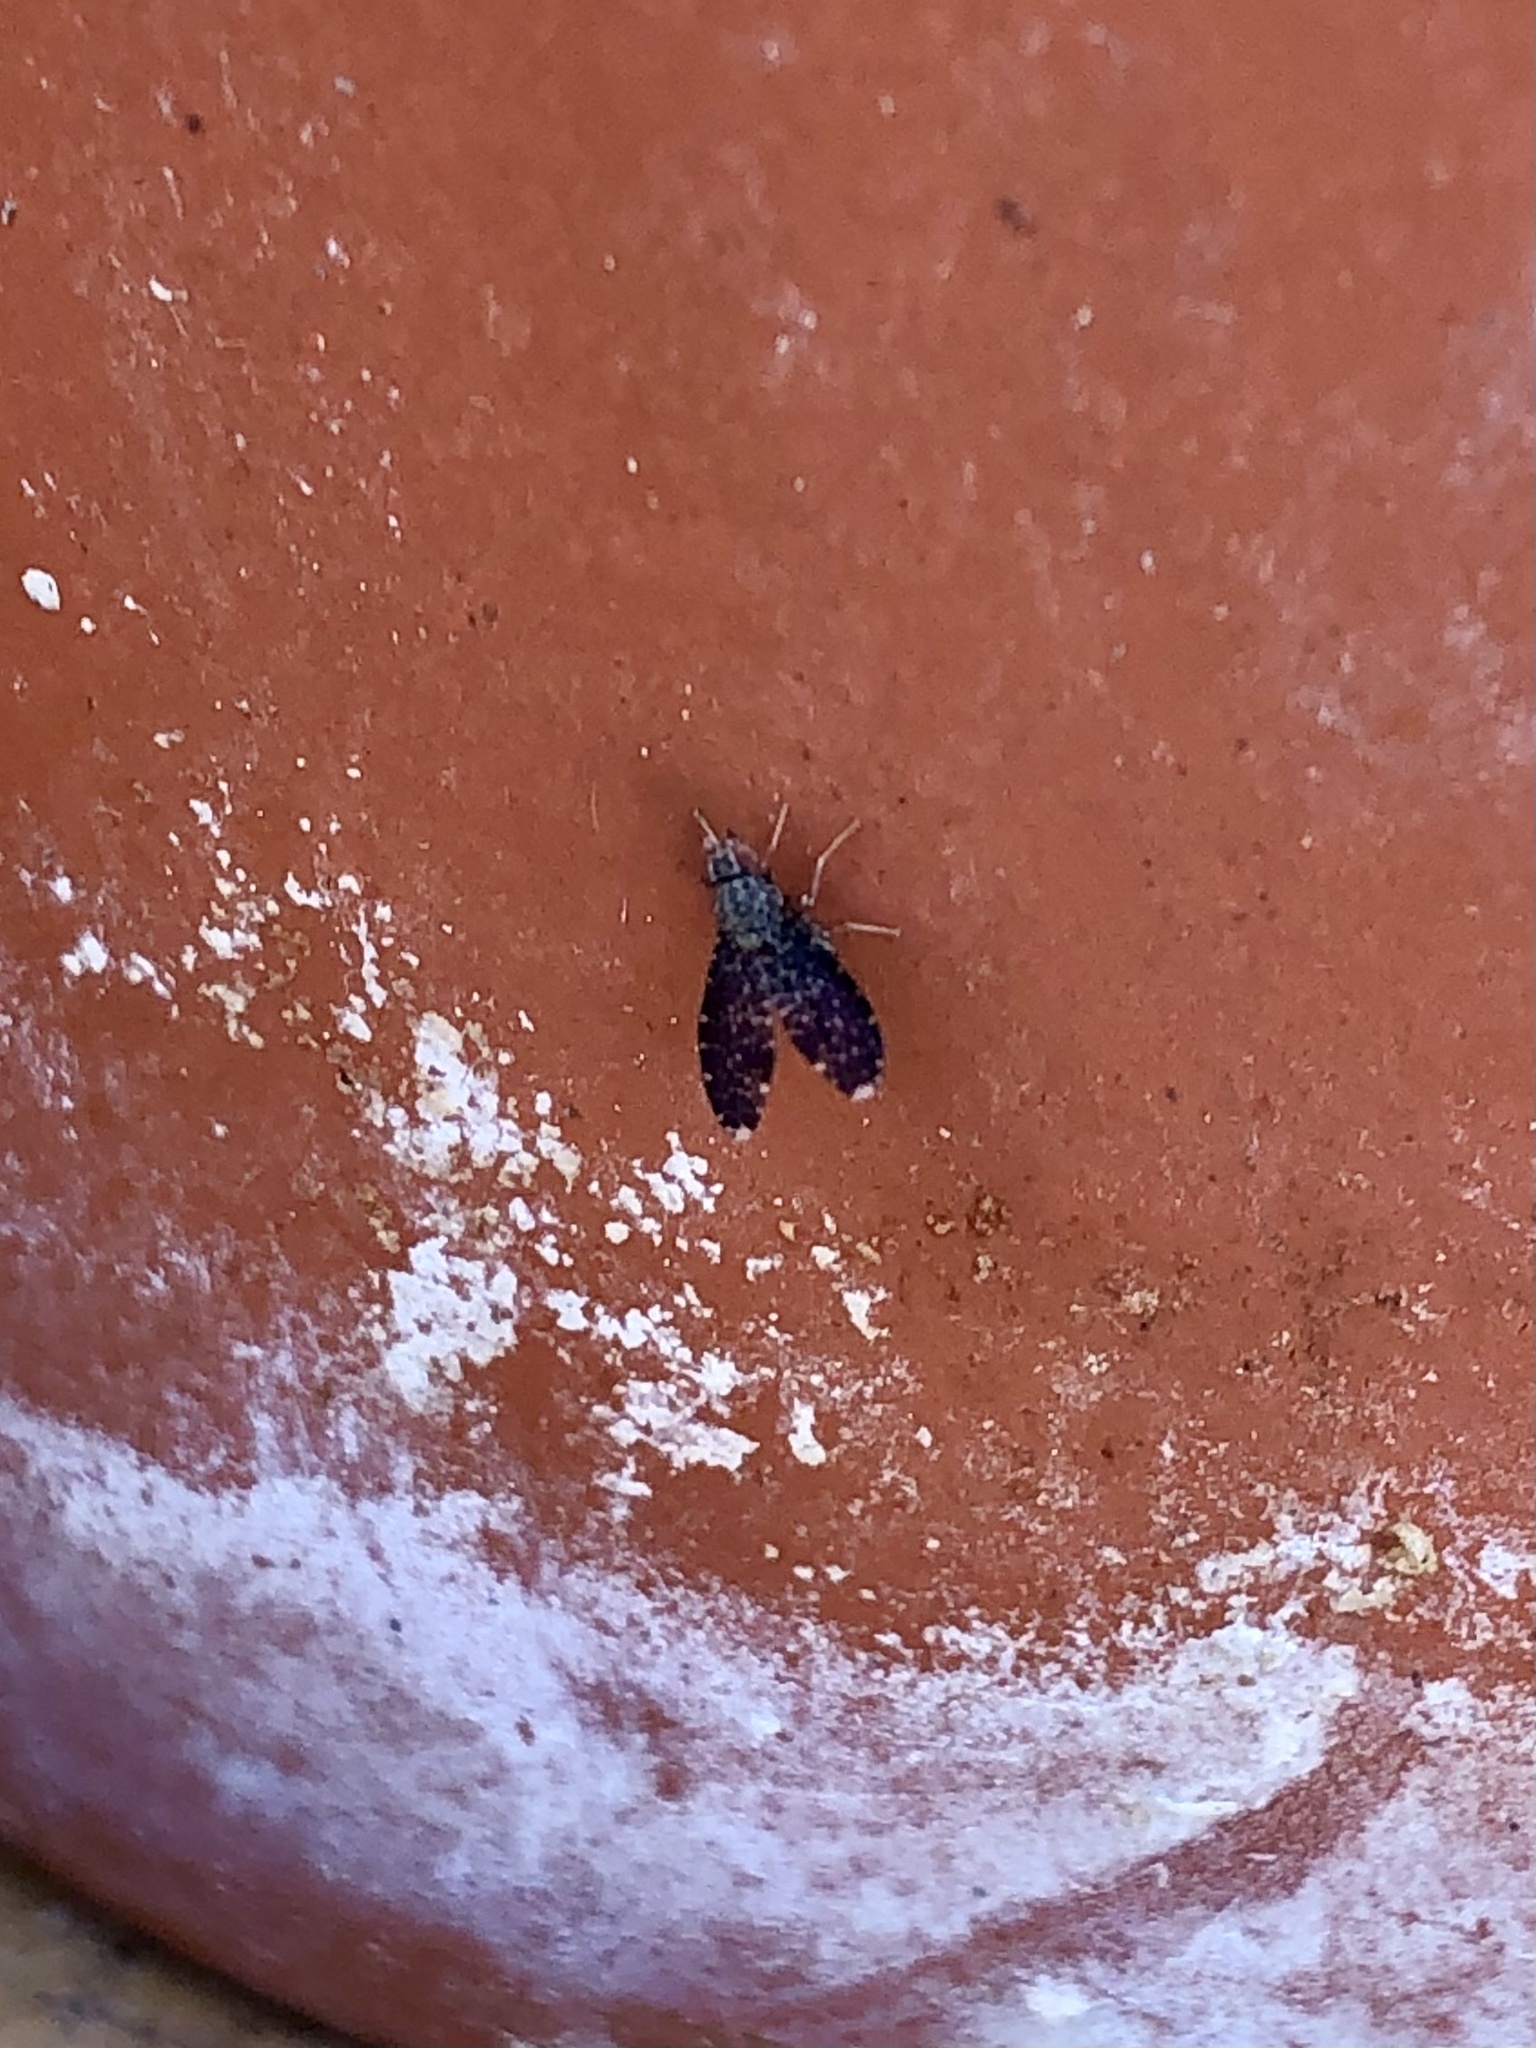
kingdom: Animalia
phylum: Arthropoda
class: Insecta
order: Diptera
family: Lauxaniidae
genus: Trypetisoma
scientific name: Trypetisoma sticticum
